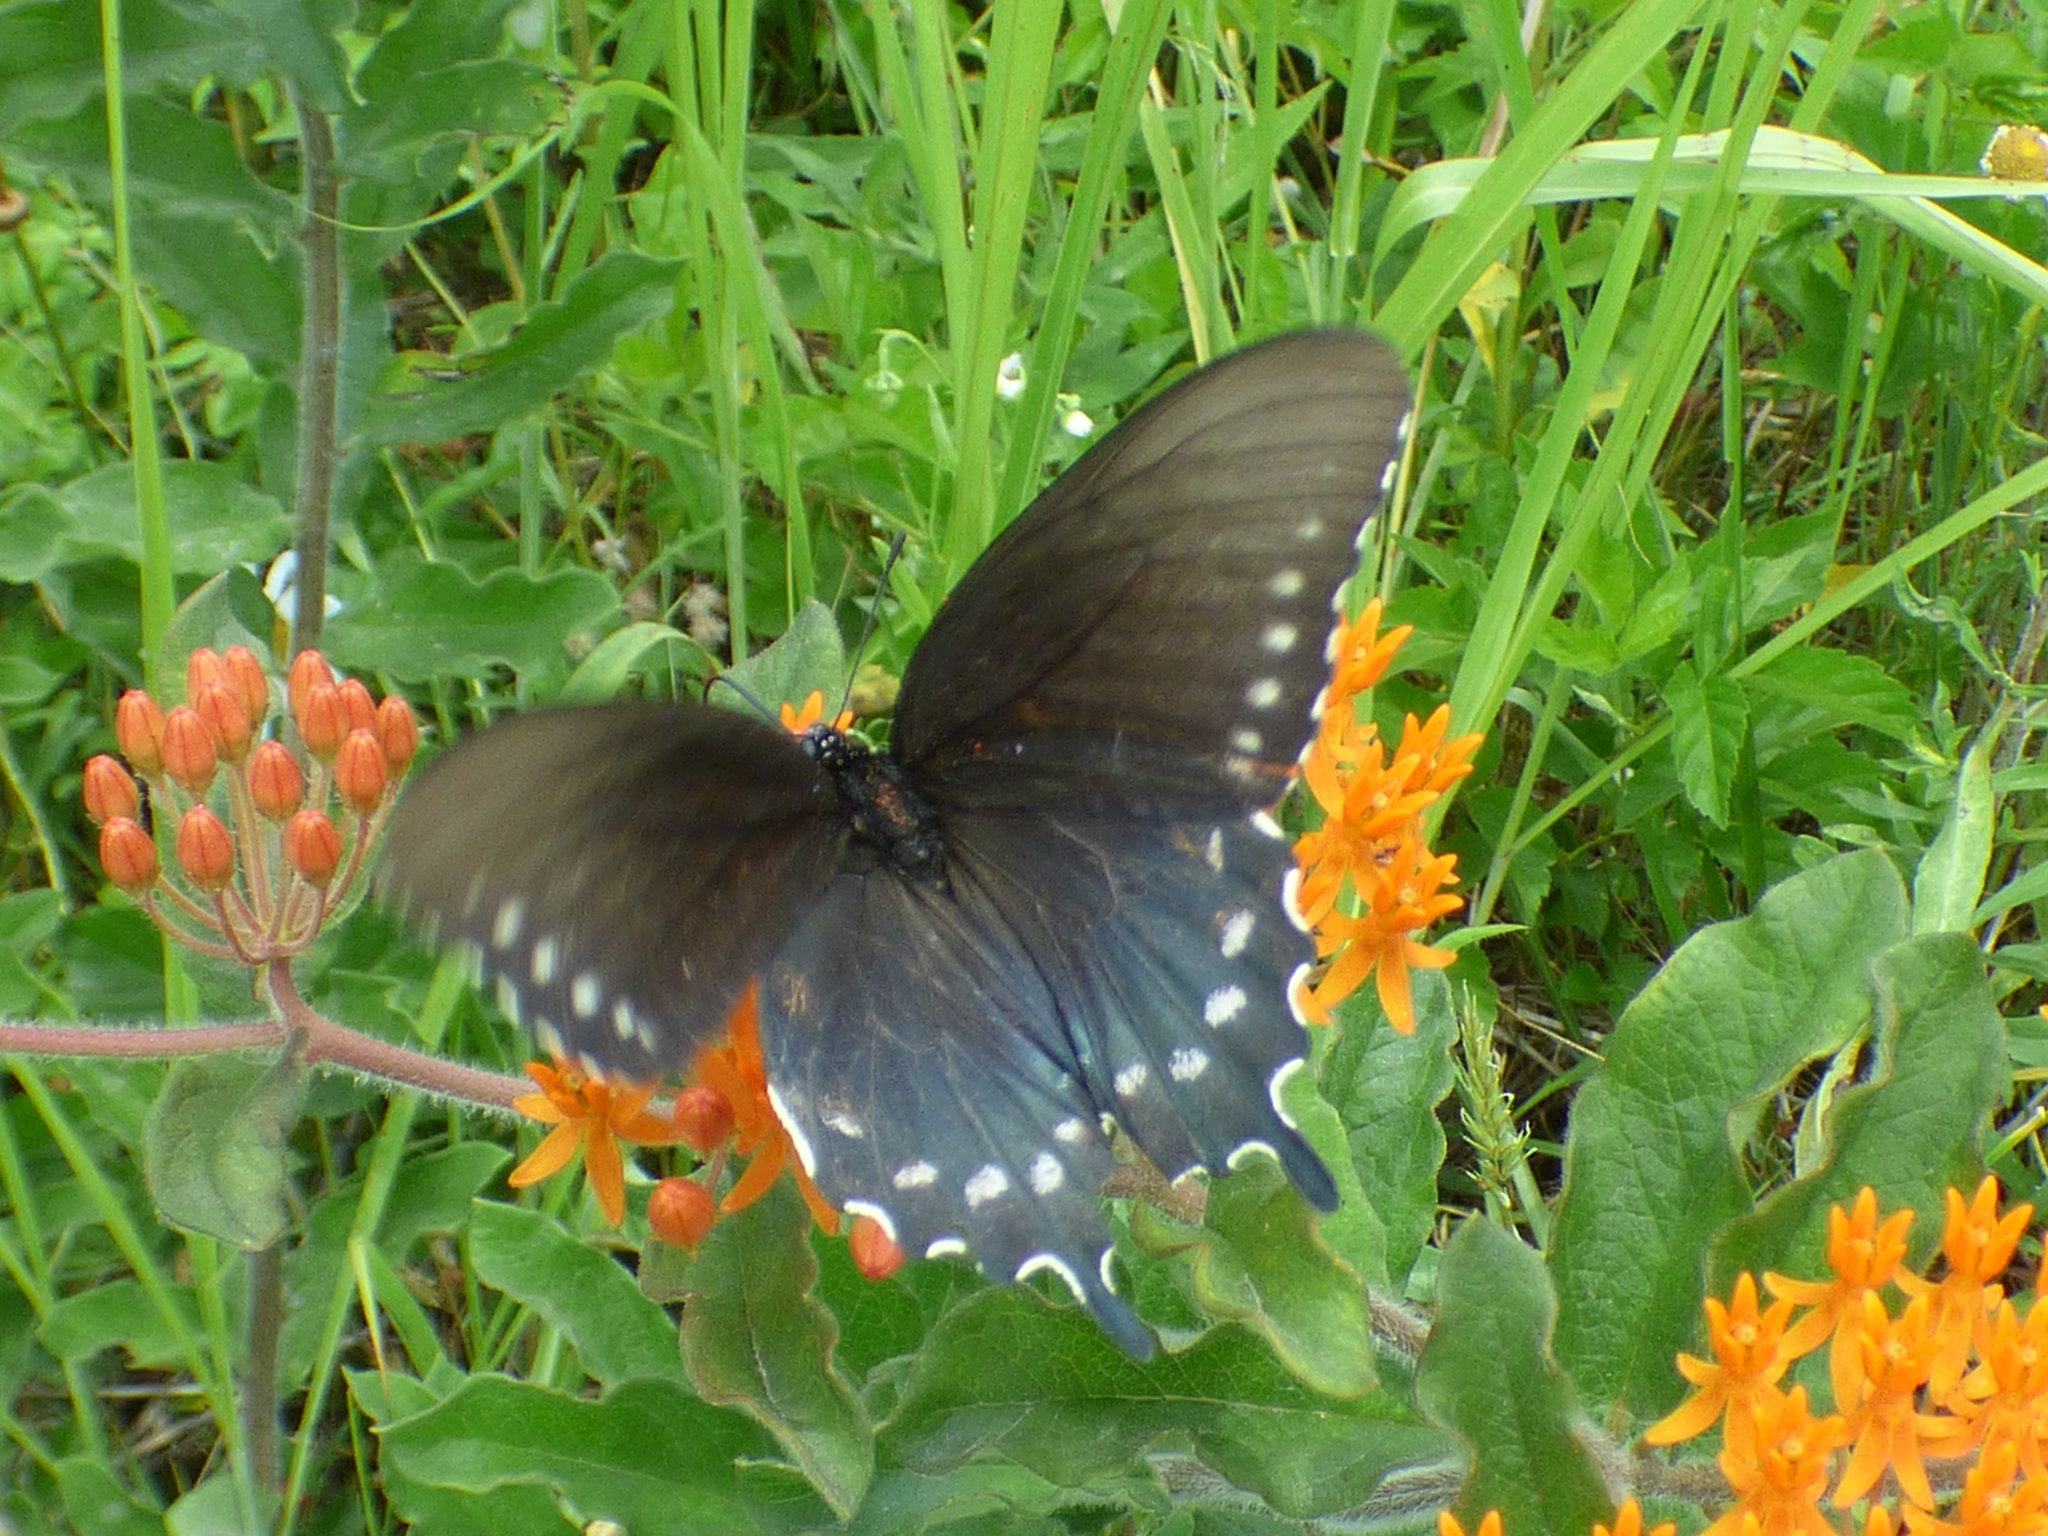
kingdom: Animalia
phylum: Arthropoda
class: Insecta
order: Lepidoptera
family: Papilionidae
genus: Battus
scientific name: Battus philenor
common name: Pipevine swallowtail
